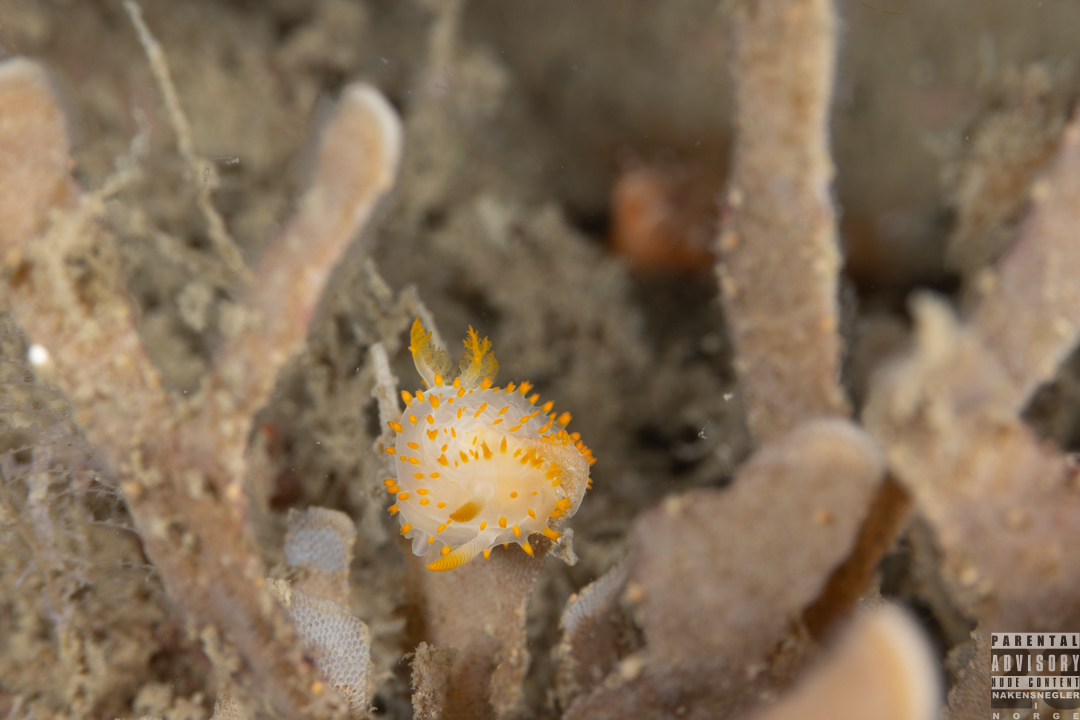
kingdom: Animalia
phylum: Mollusca
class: Gastropoda
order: Nudibranchia
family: Polyceridae
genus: Crimora
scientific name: Crimora papillata
